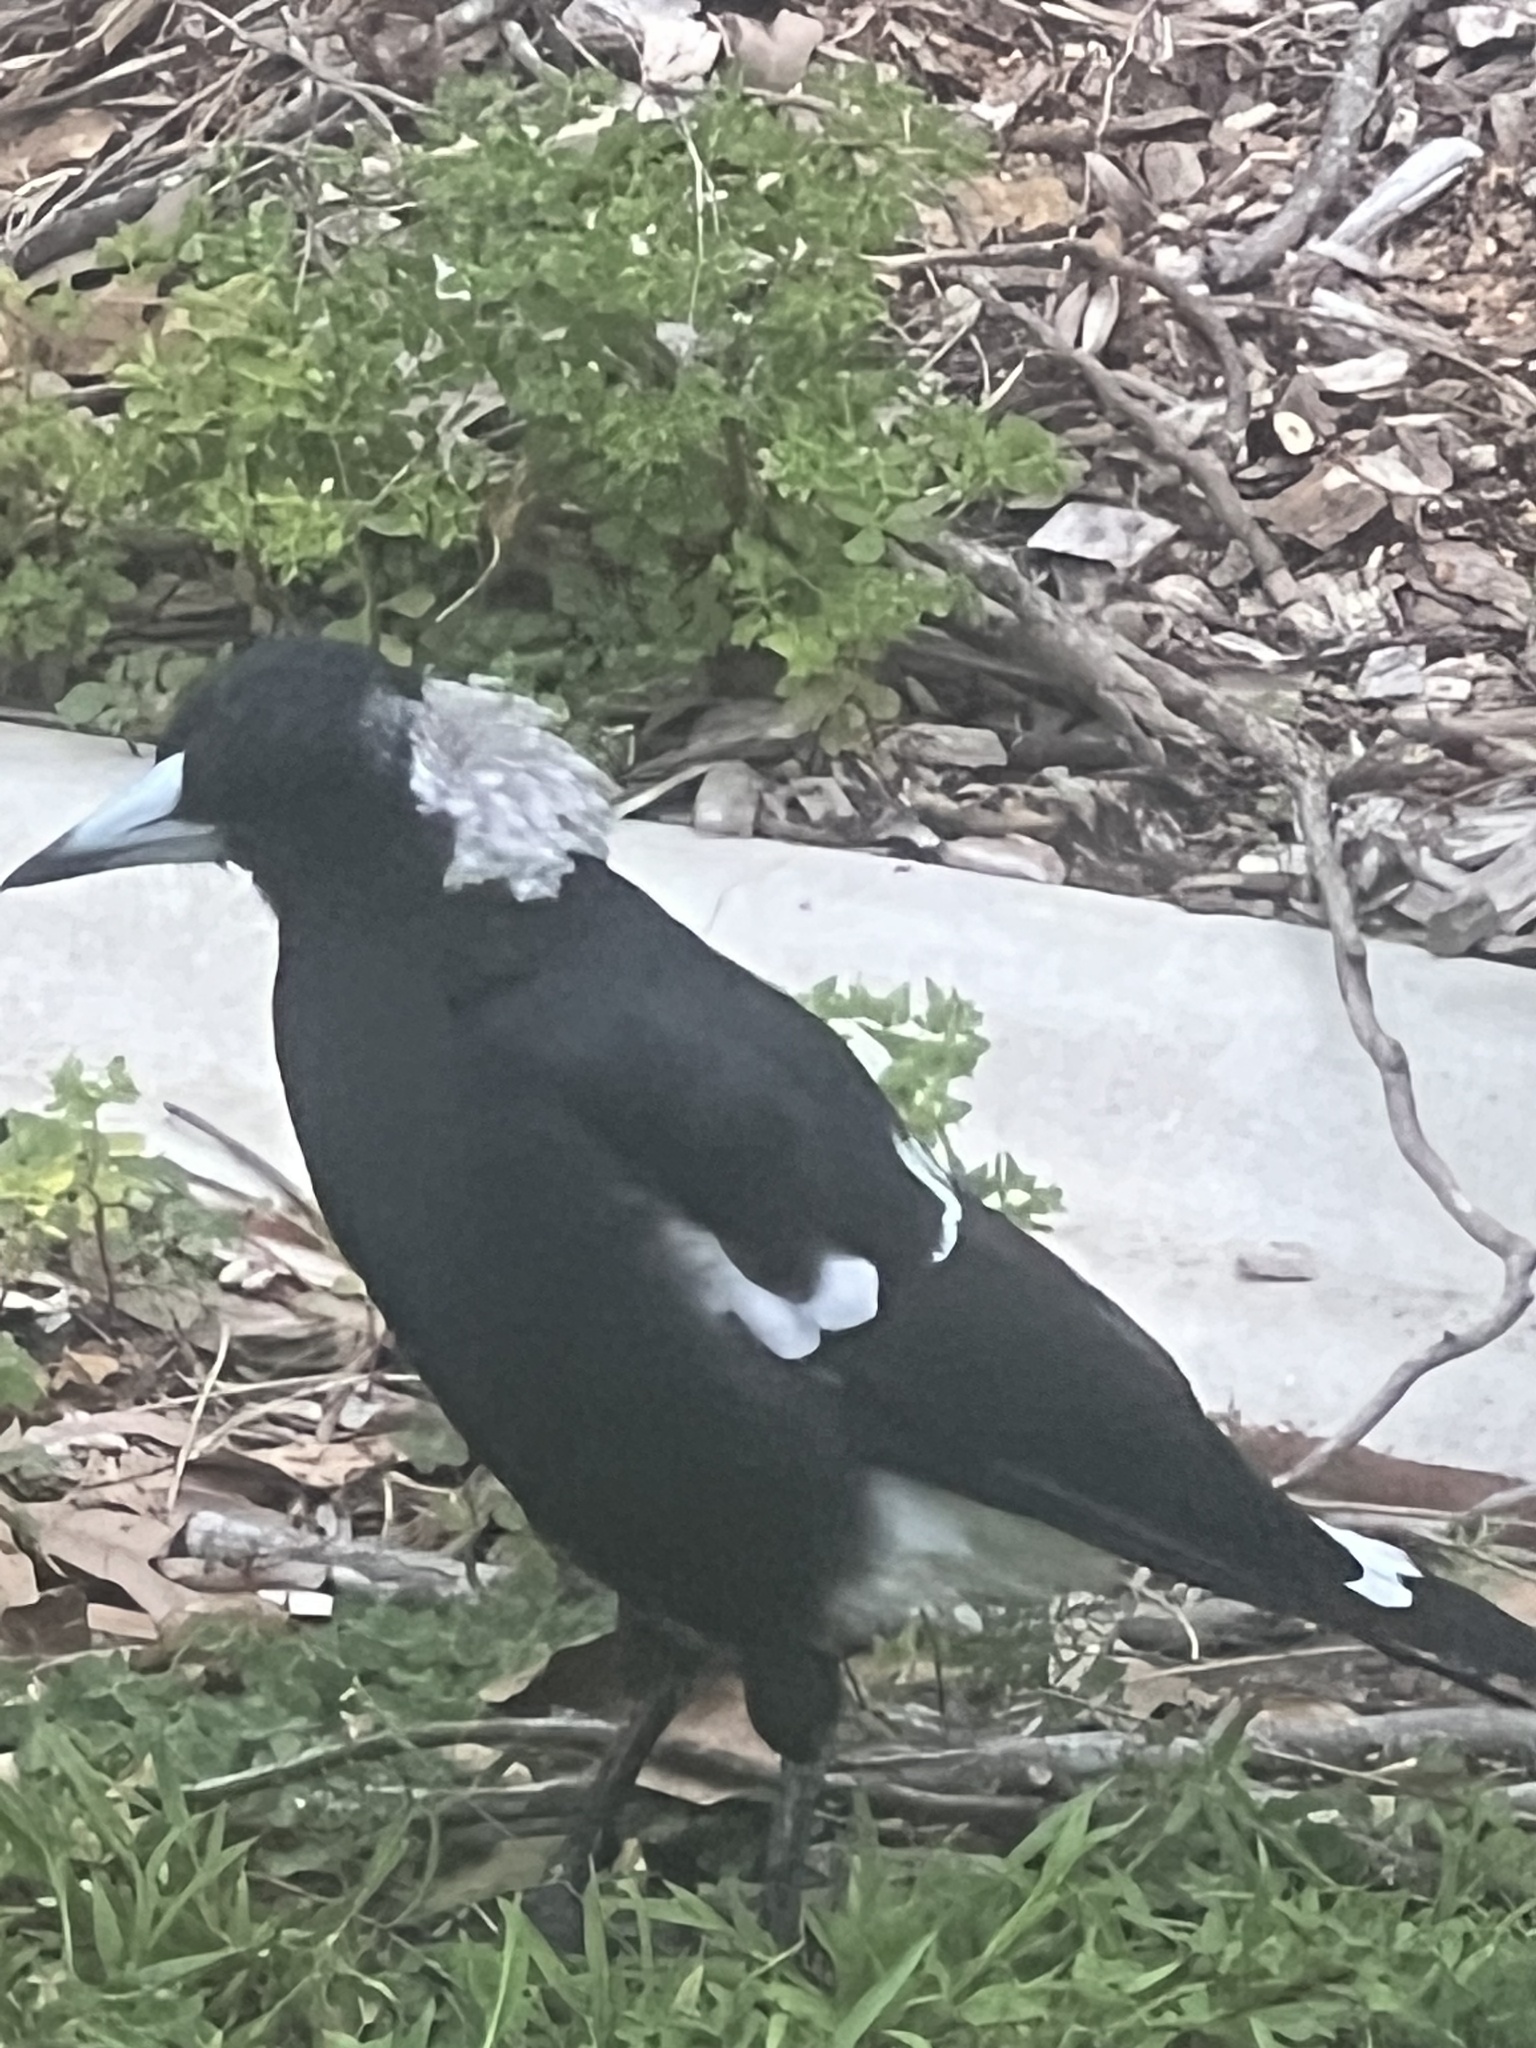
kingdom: Animalia
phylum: Chordata
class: Aves
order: Passeriformes
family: Cracticidae
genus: Gymnorhina
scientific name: Gymnorhina tibicen
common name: Australian magpie
